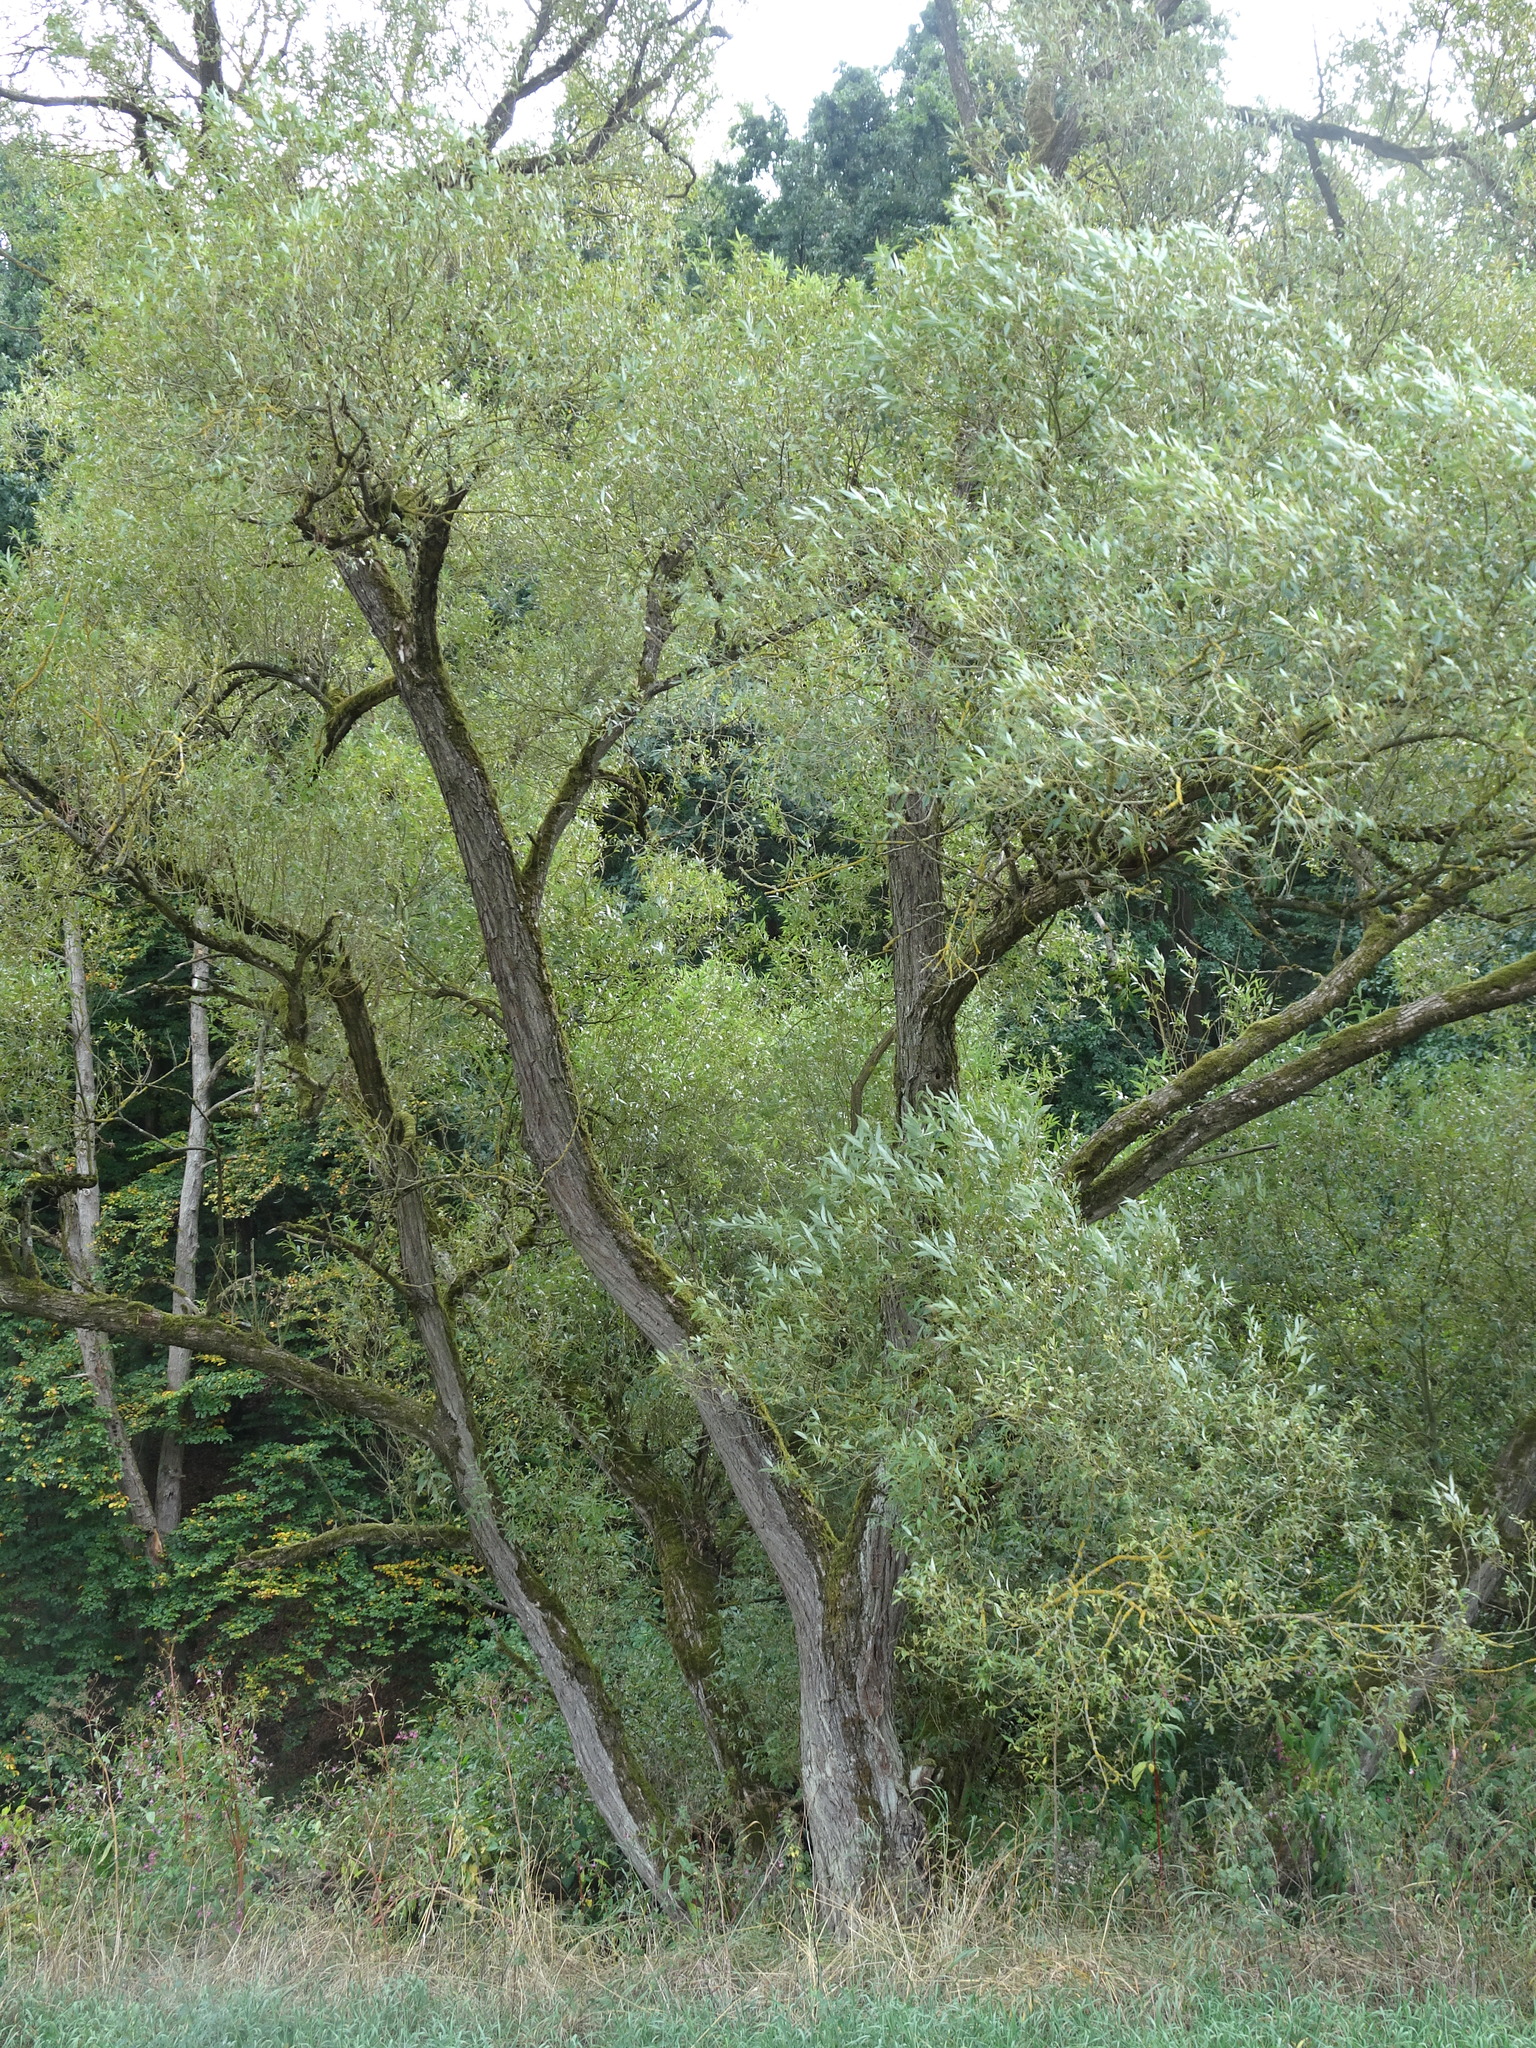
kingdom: Plantae
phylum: Tracheophyta
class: Magnoliopsida
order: Malpighiales
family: Salicaceae
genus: Salix
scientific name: Salix alba
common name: White willow
